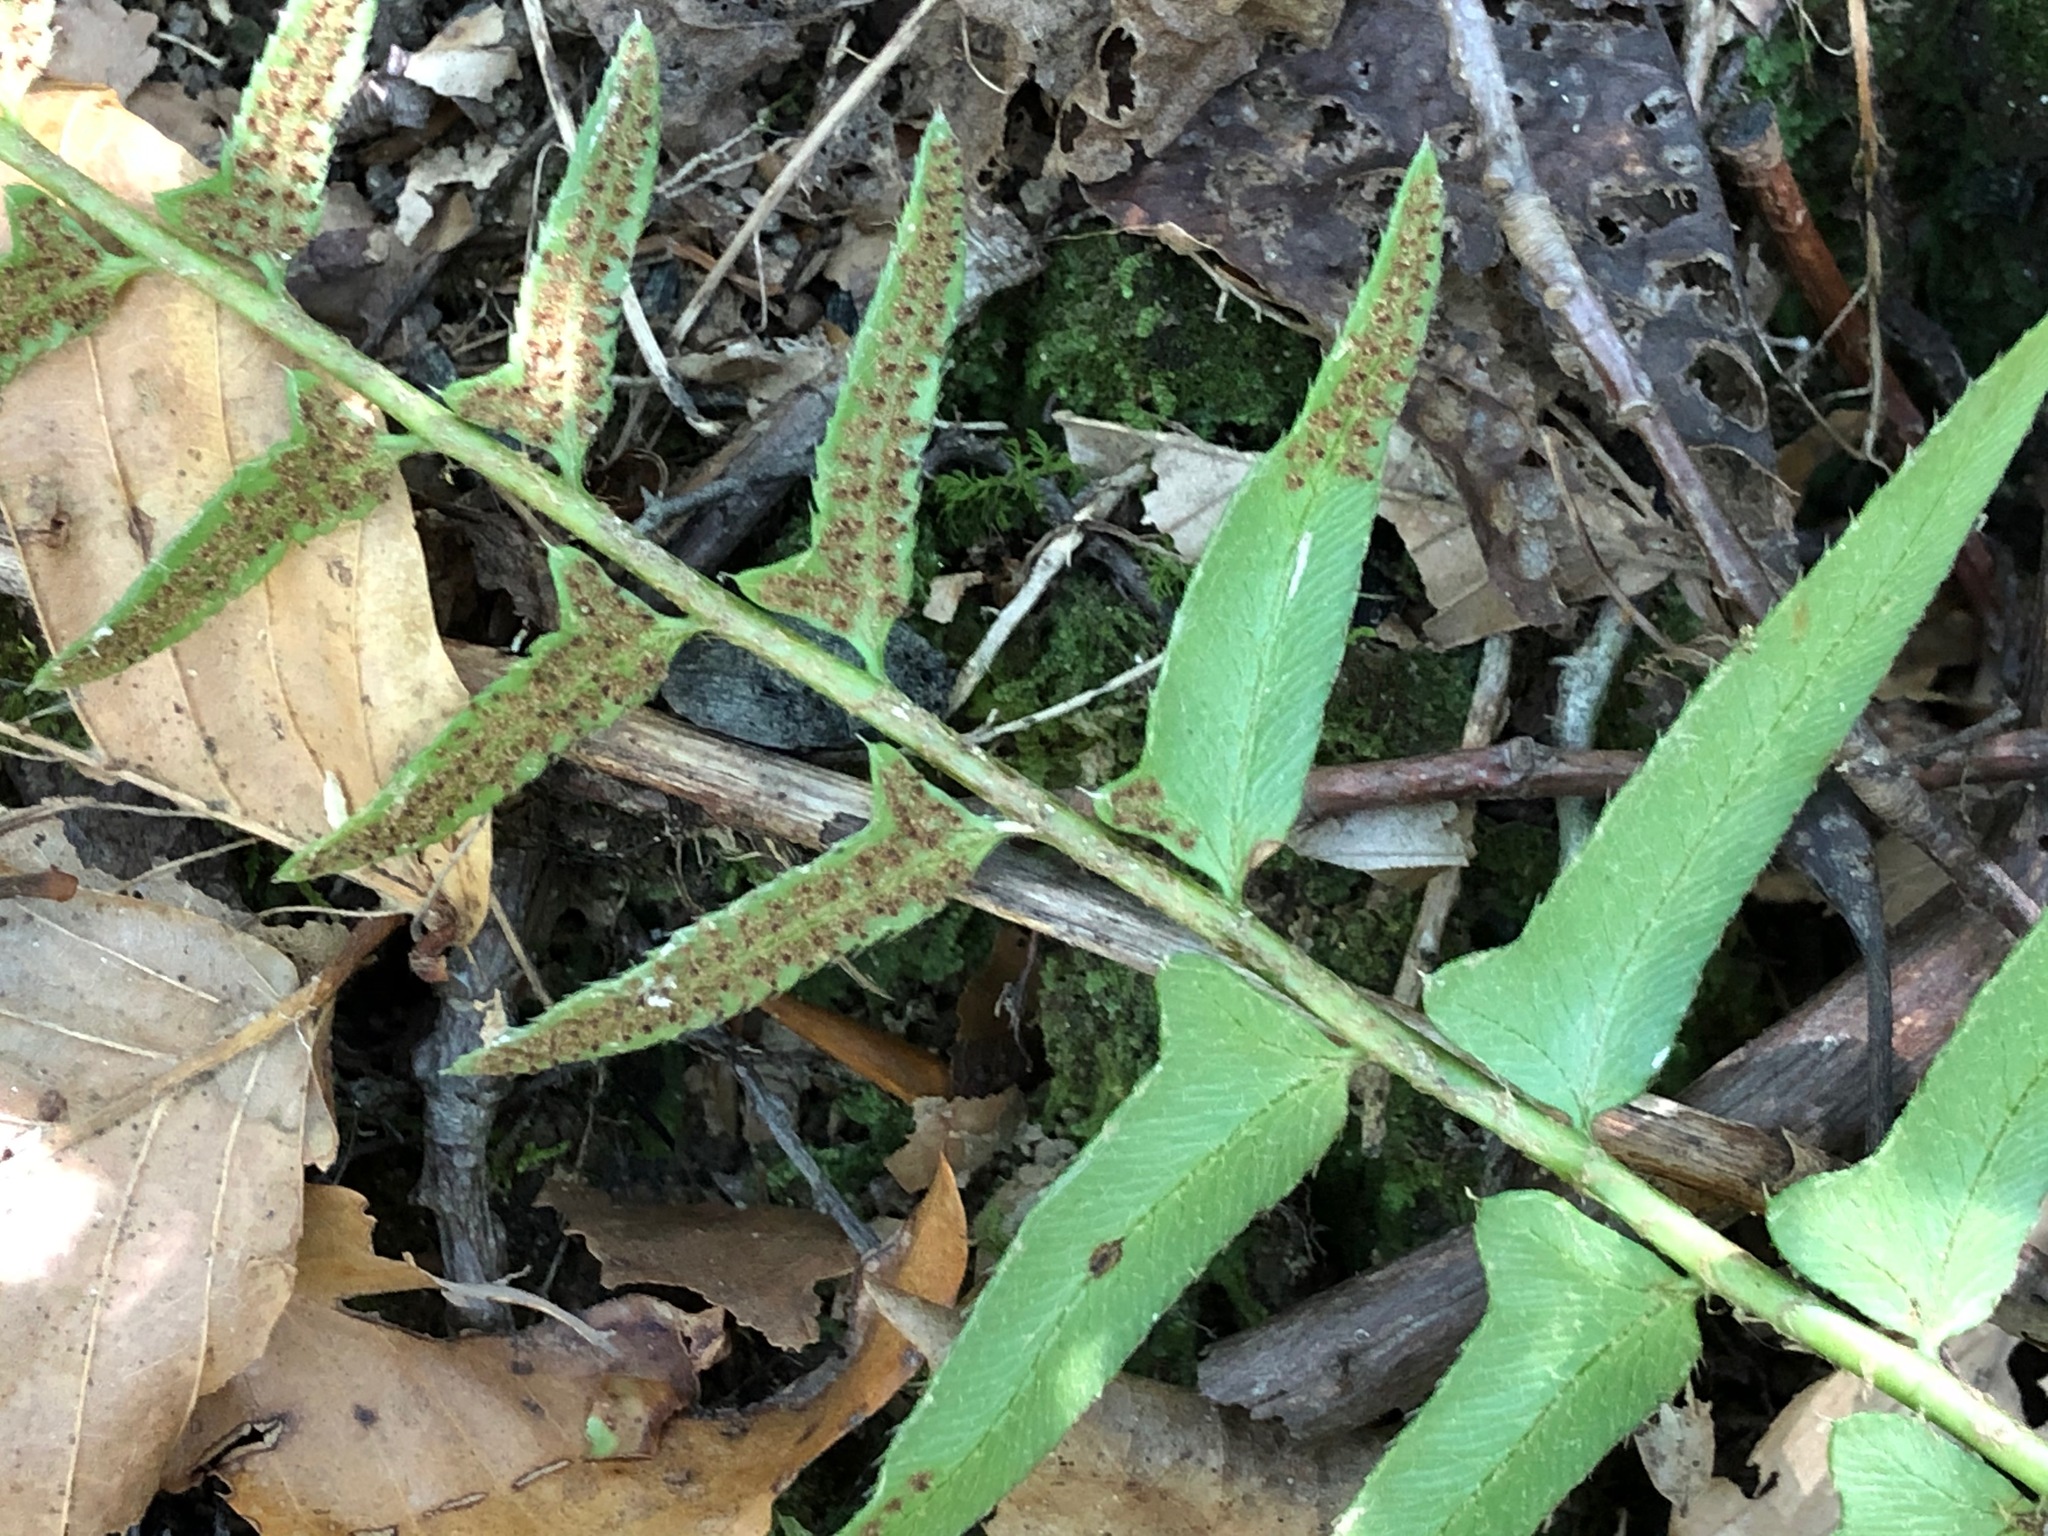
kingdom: Plantae
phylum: Tracheophyta
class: Polypodiopsida
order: Polypodiales
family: Dryopteridaceae
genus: Polystichum
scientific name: Polystichum acrostichoides
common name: Christmas fern
